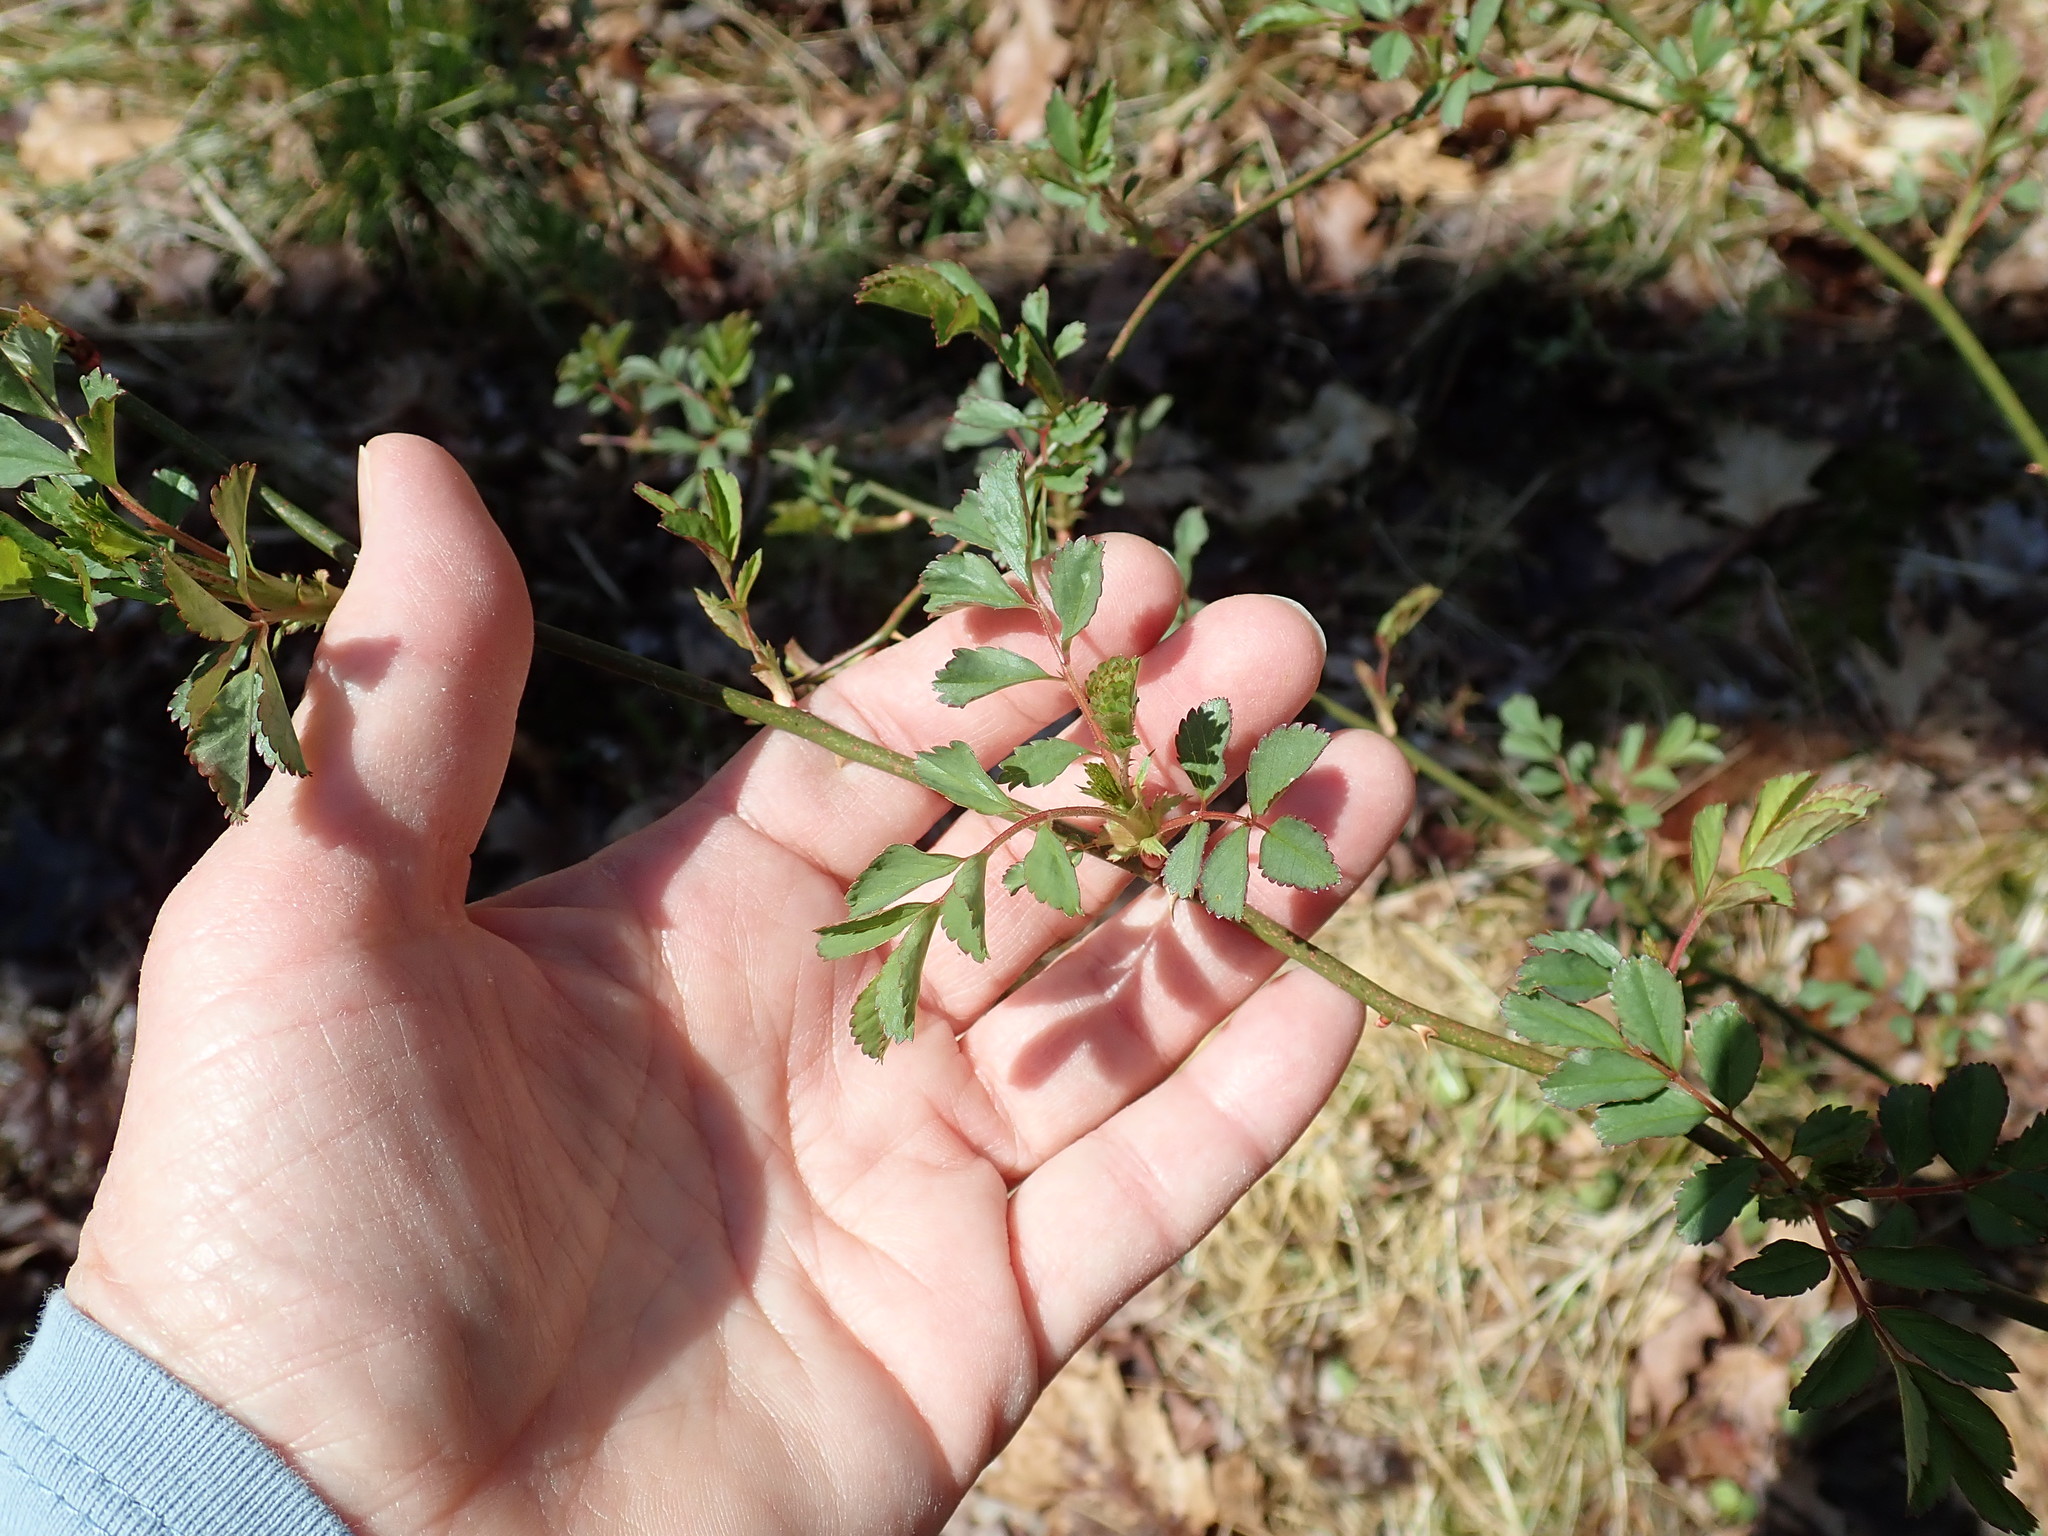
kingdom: Plantae
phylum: Tracheophyta
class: Magnoliopsida
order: Rosales
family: Rosaceae
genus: Rosa
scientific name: Rosa multiflora
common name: Multiflora rose
